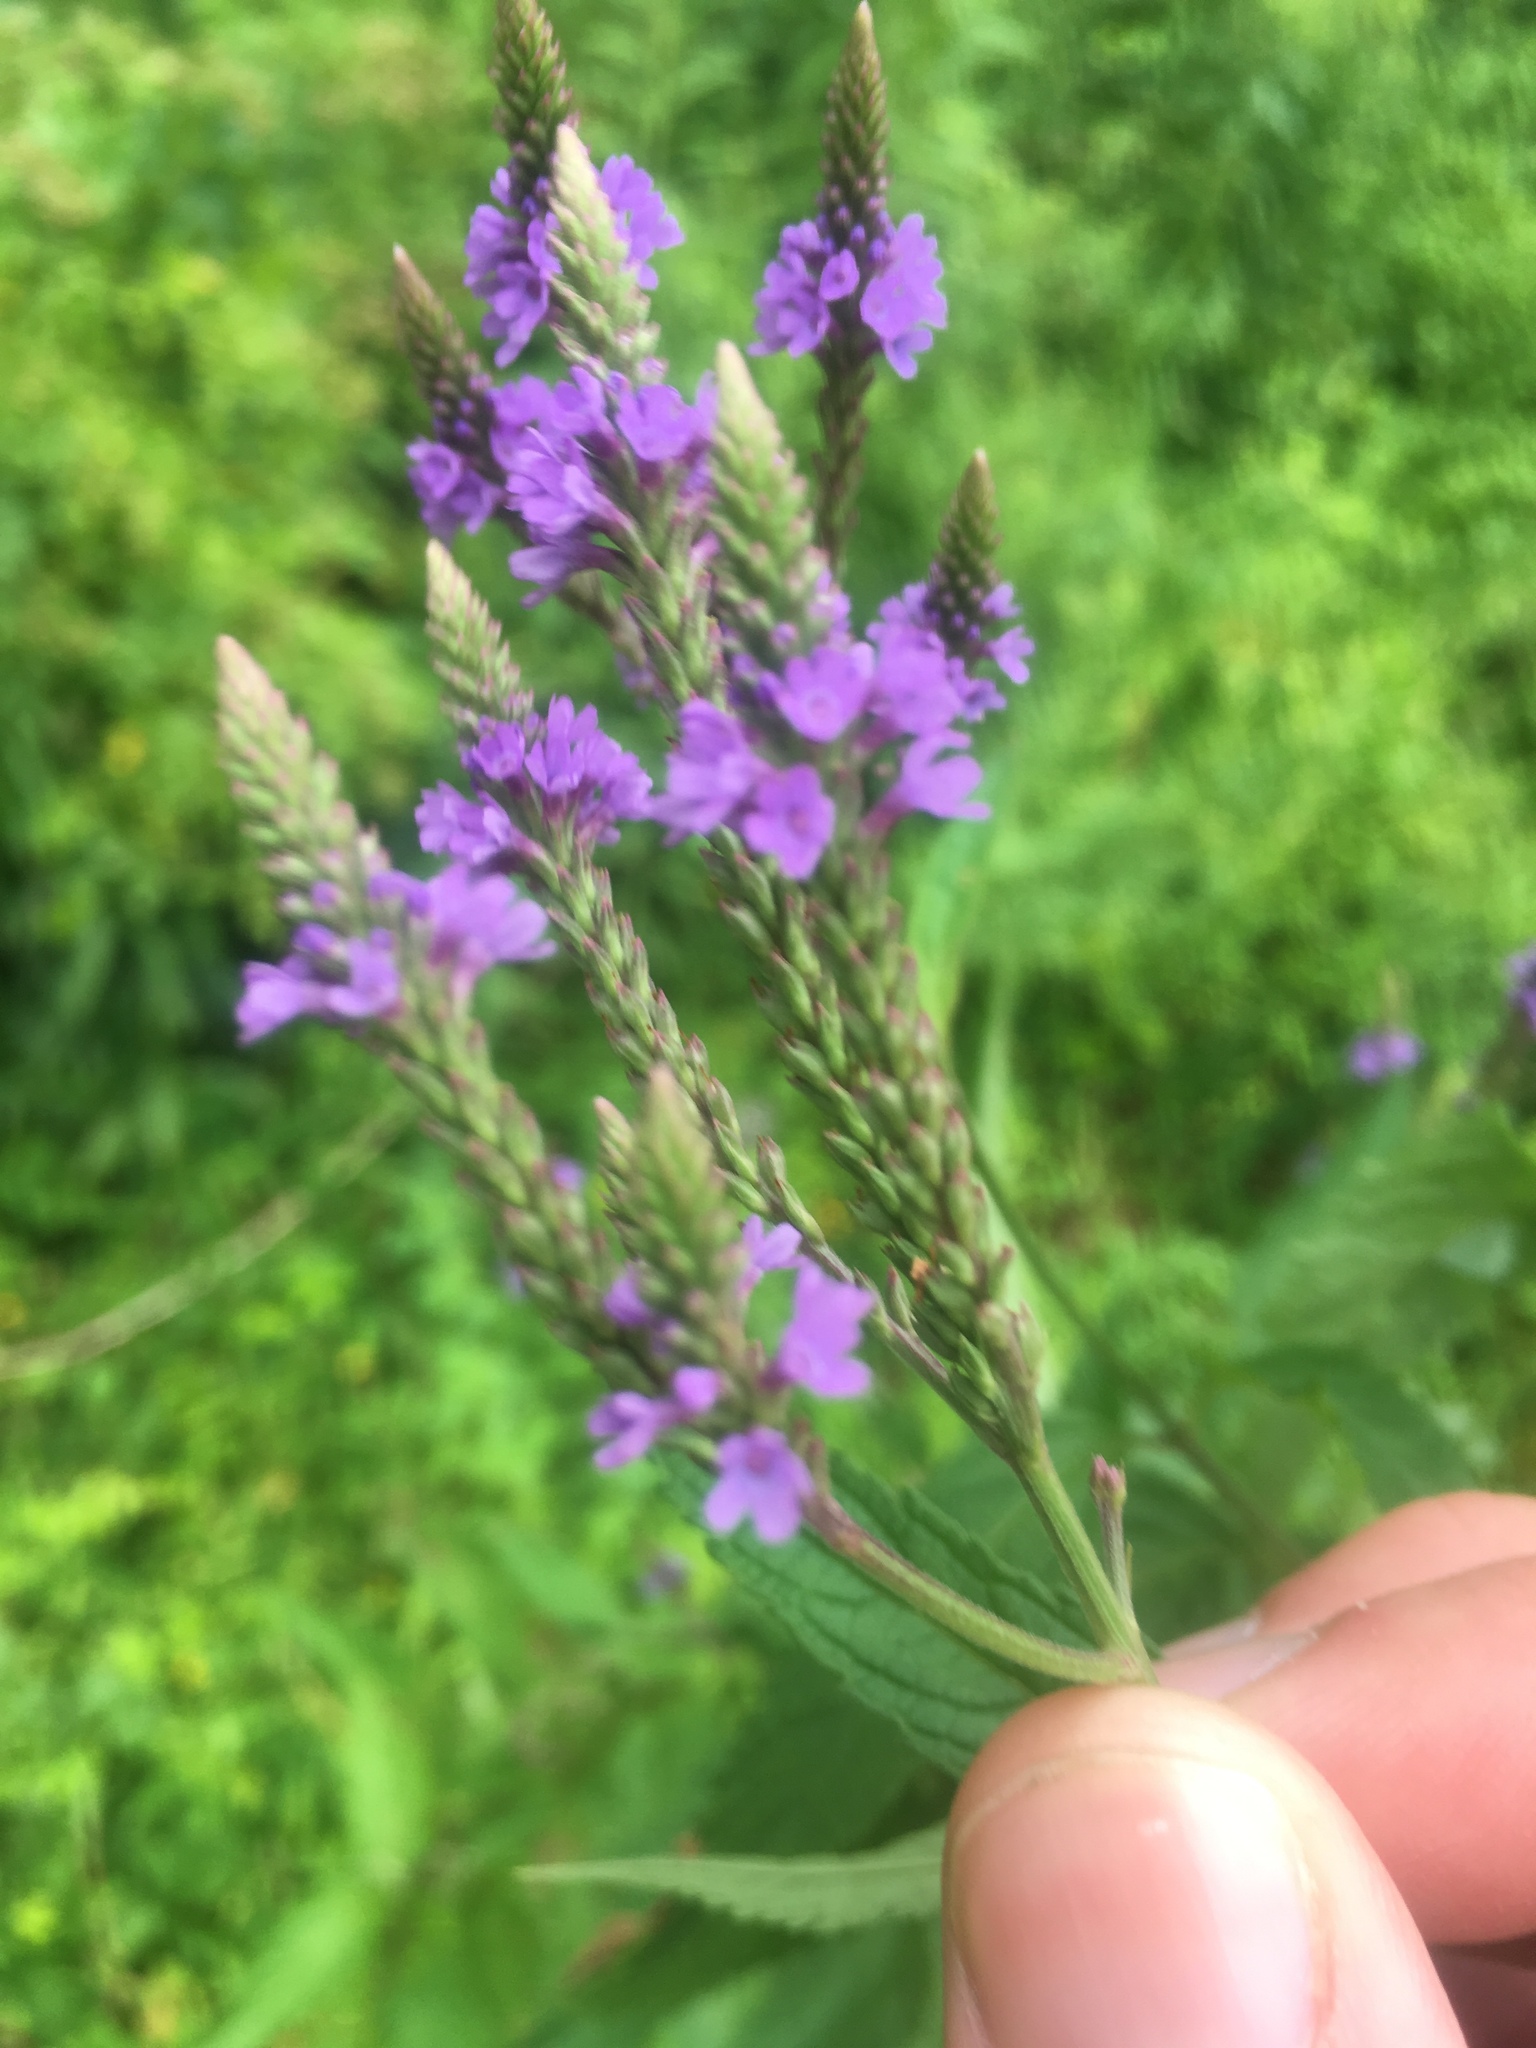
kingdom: Plantae
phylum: Tracheophyta
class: Magnoliopsida
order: Lamiales
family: Verbenaceae
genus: Verbena
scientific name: Verbena hastata
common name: American blue vervain
